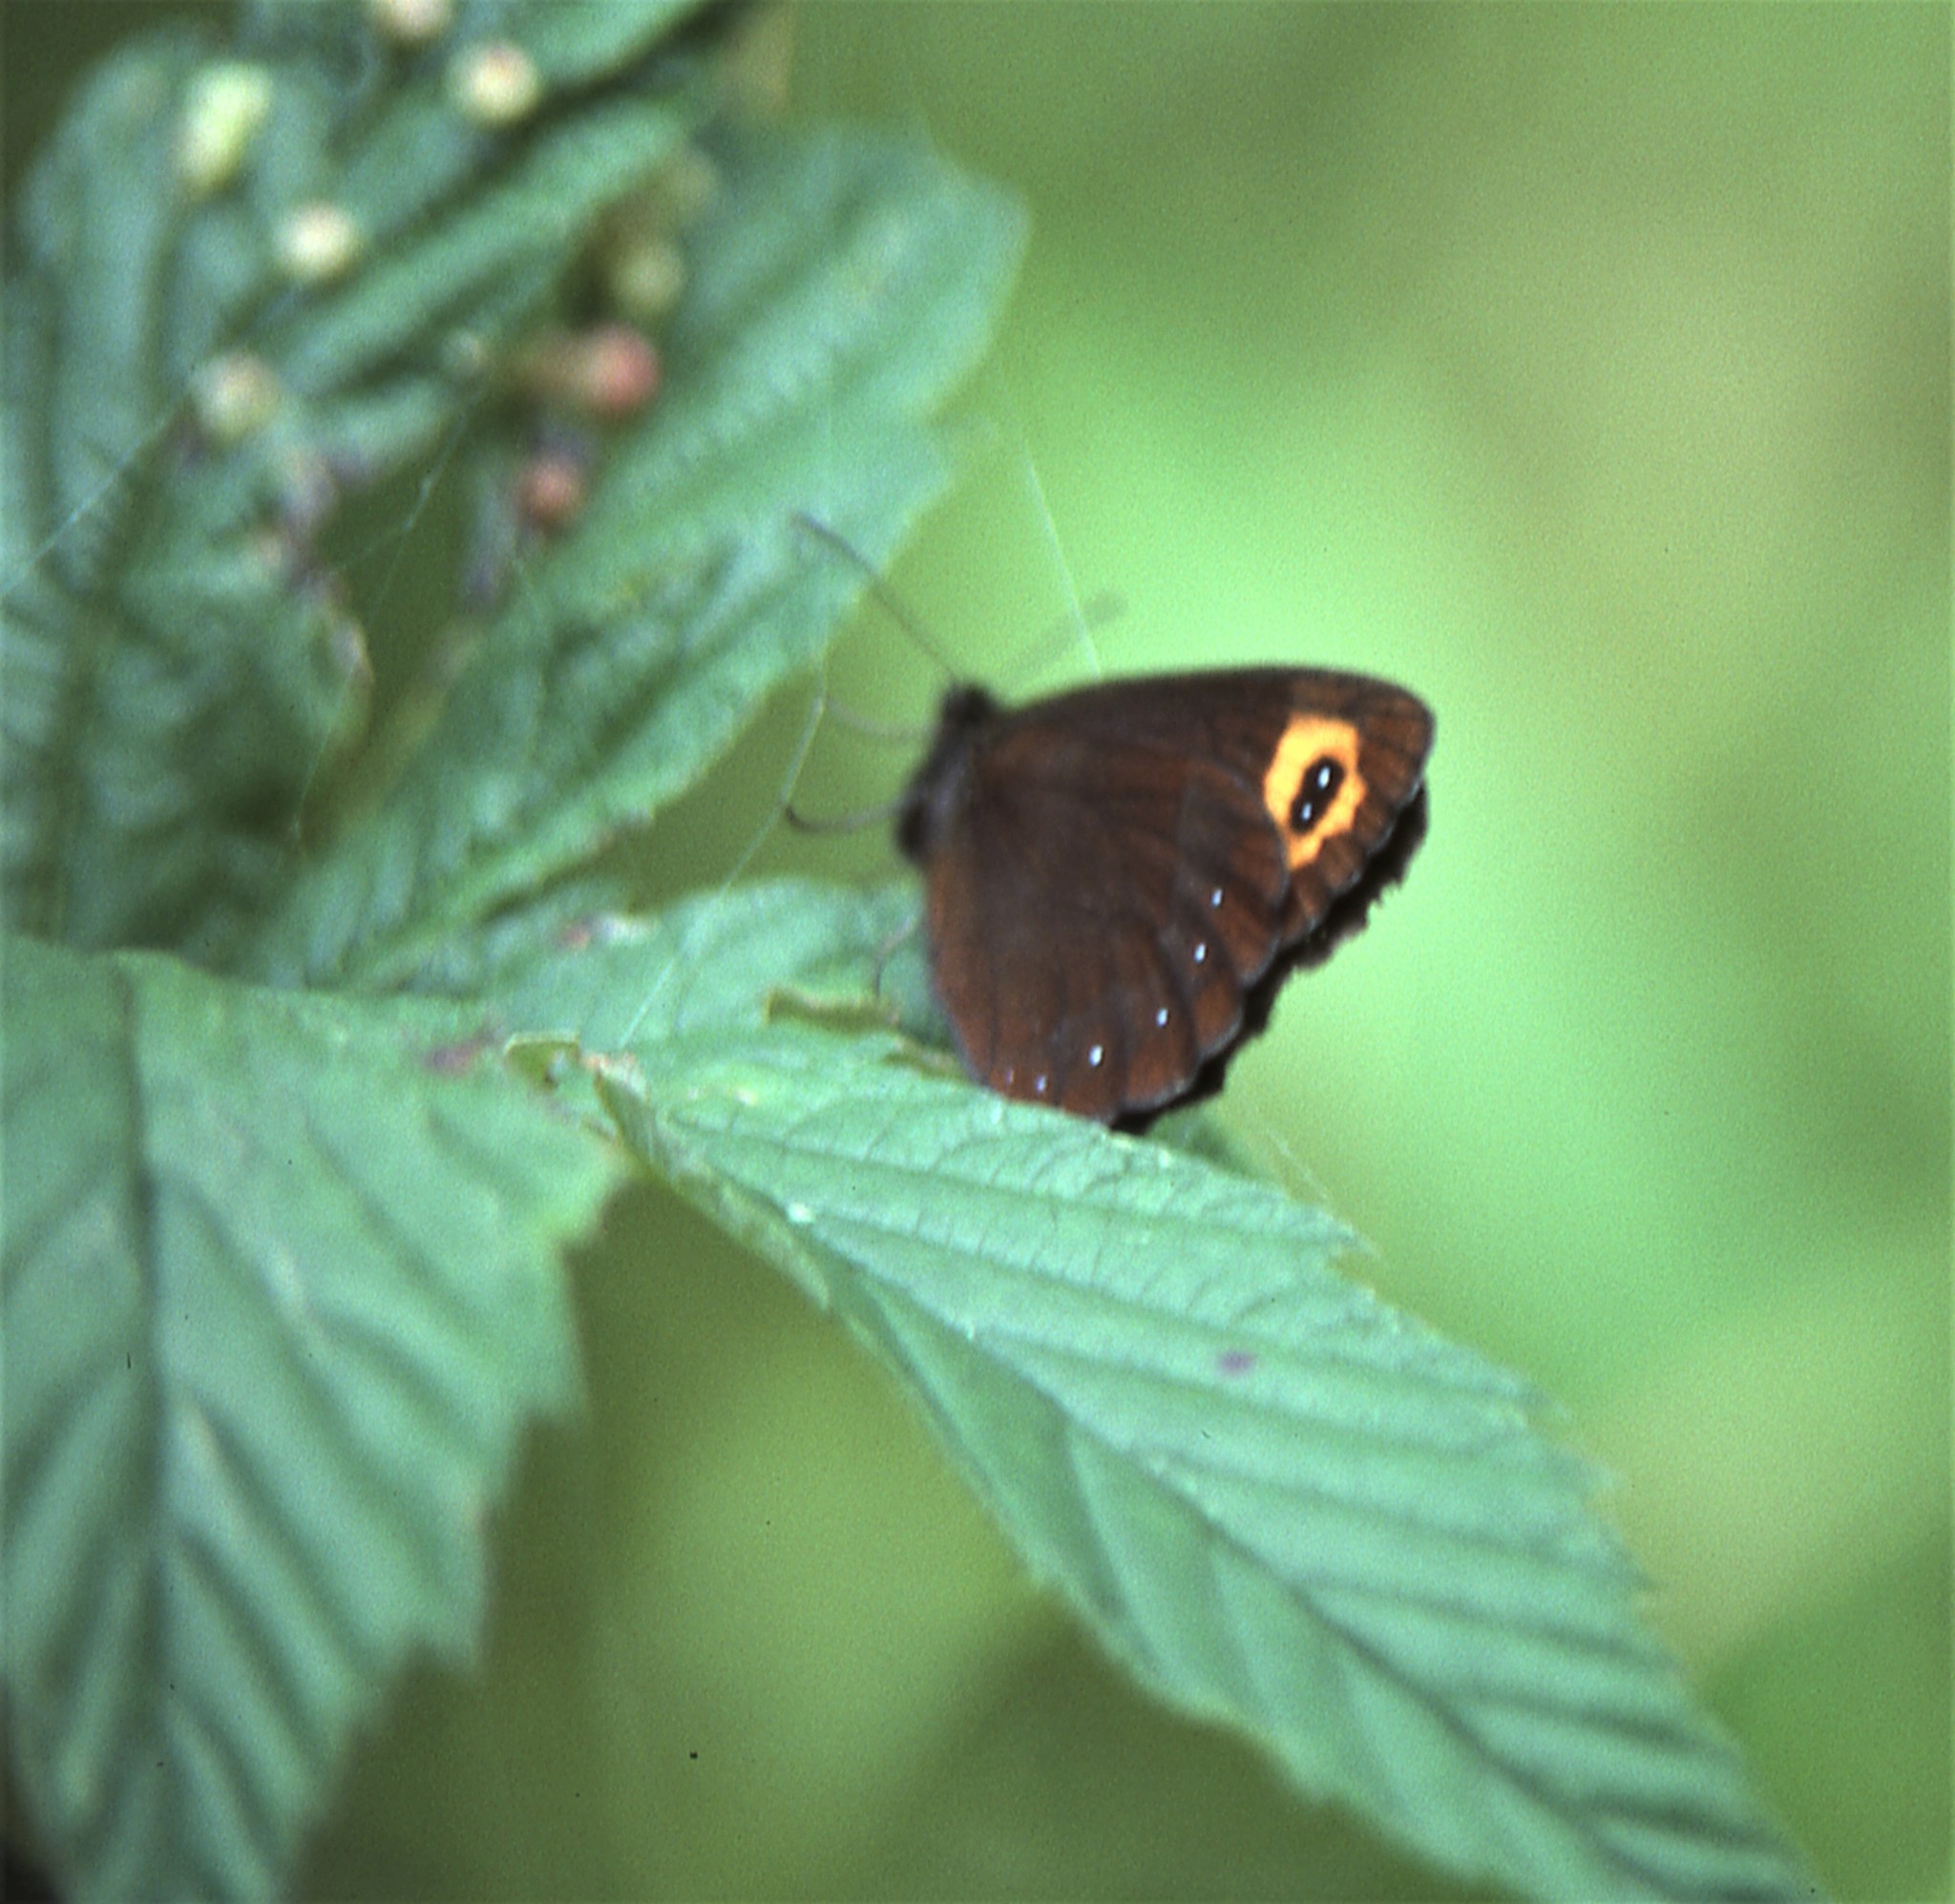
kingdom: Animalia
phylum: Arthropoda
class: Insecta
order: Lepidoptera
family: Nymphalidae
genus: Erebia
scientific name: Erebia neriene
